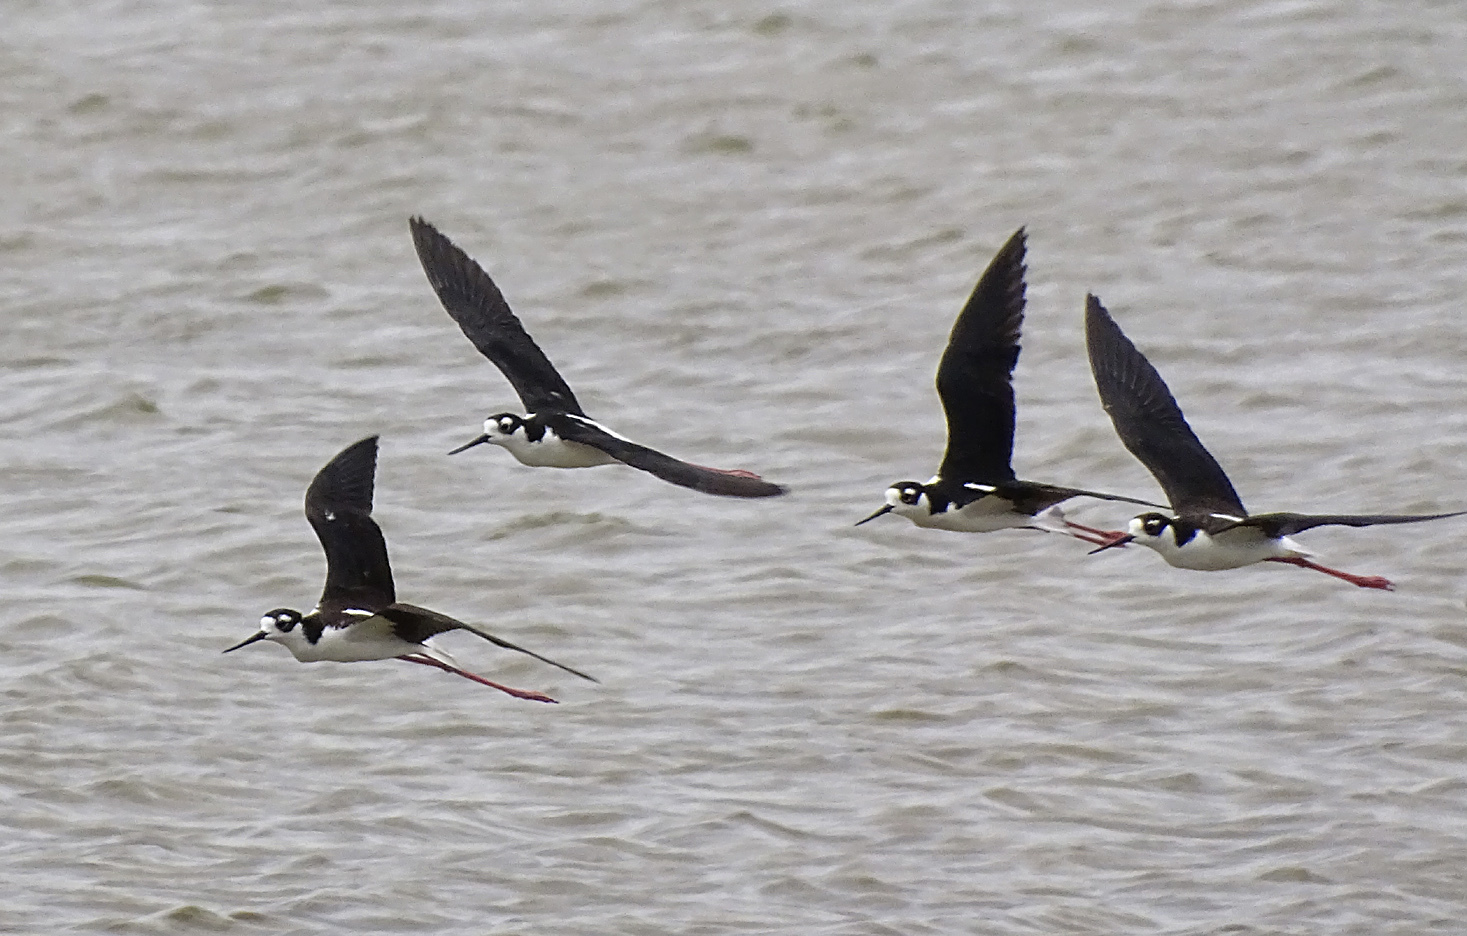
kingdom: Animalia
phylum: Chordata
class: Aves
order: Charadriiformes
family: Recurvirostridae
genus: Himantopus
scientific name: Himantopus mexicanus
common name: Black-necked stilt
